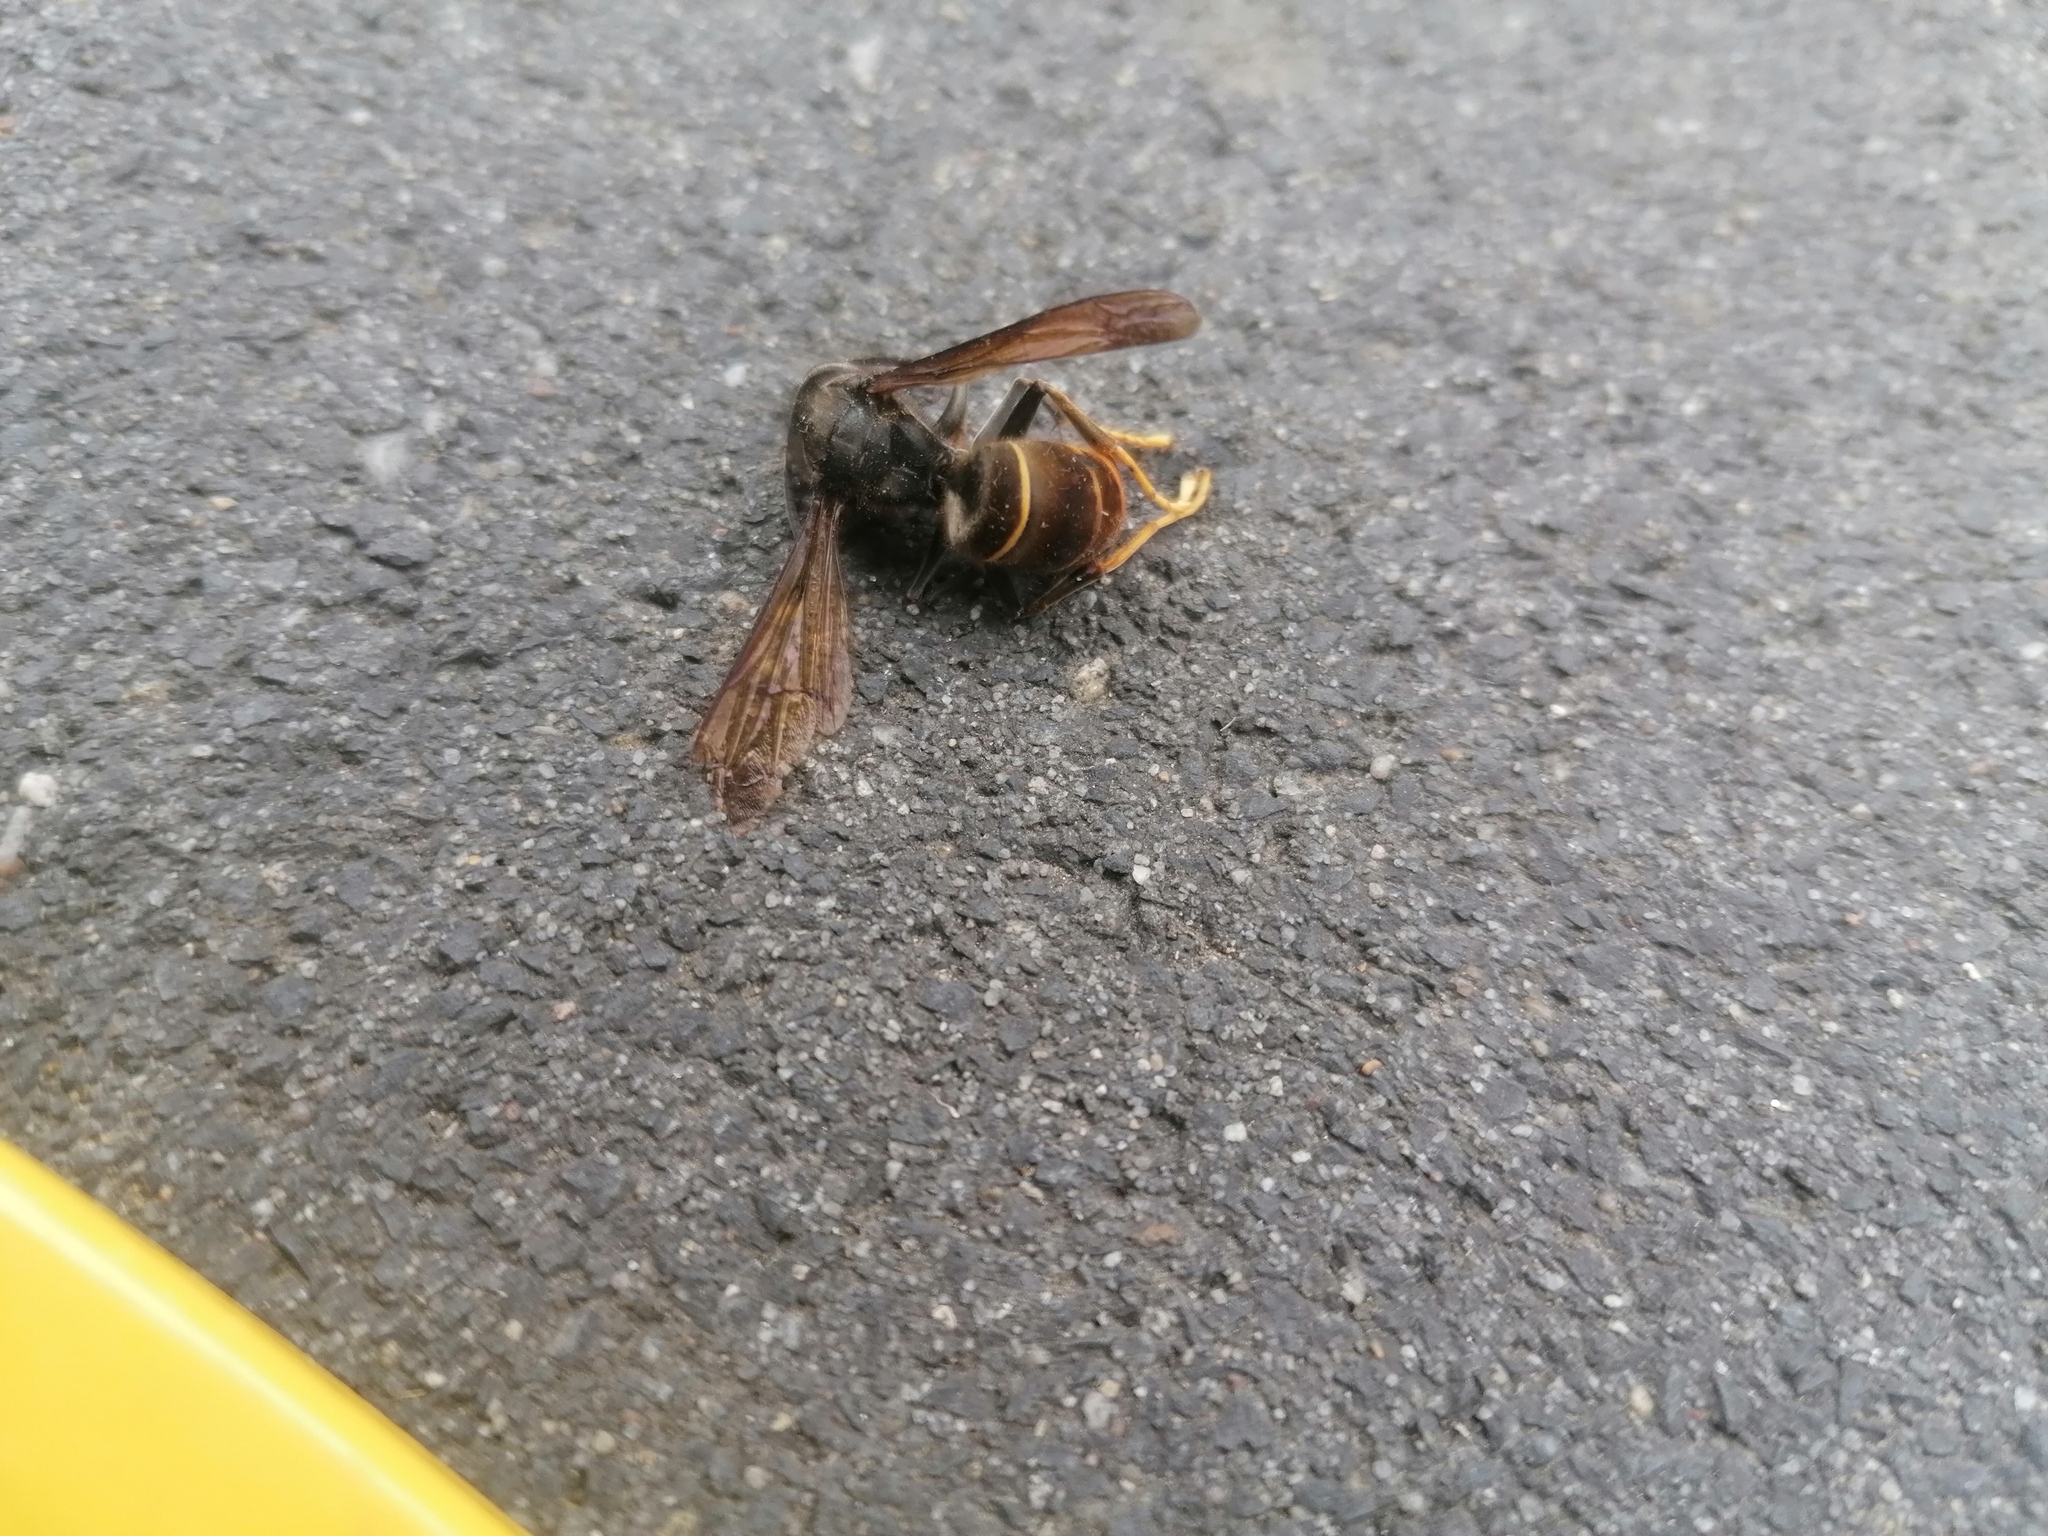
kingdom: Animalia
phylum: Arthropoda
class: Insecta
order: Hymenoptera
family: Vespidae
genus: Vespa
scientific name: Vespa velutina
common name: Asian hornet
